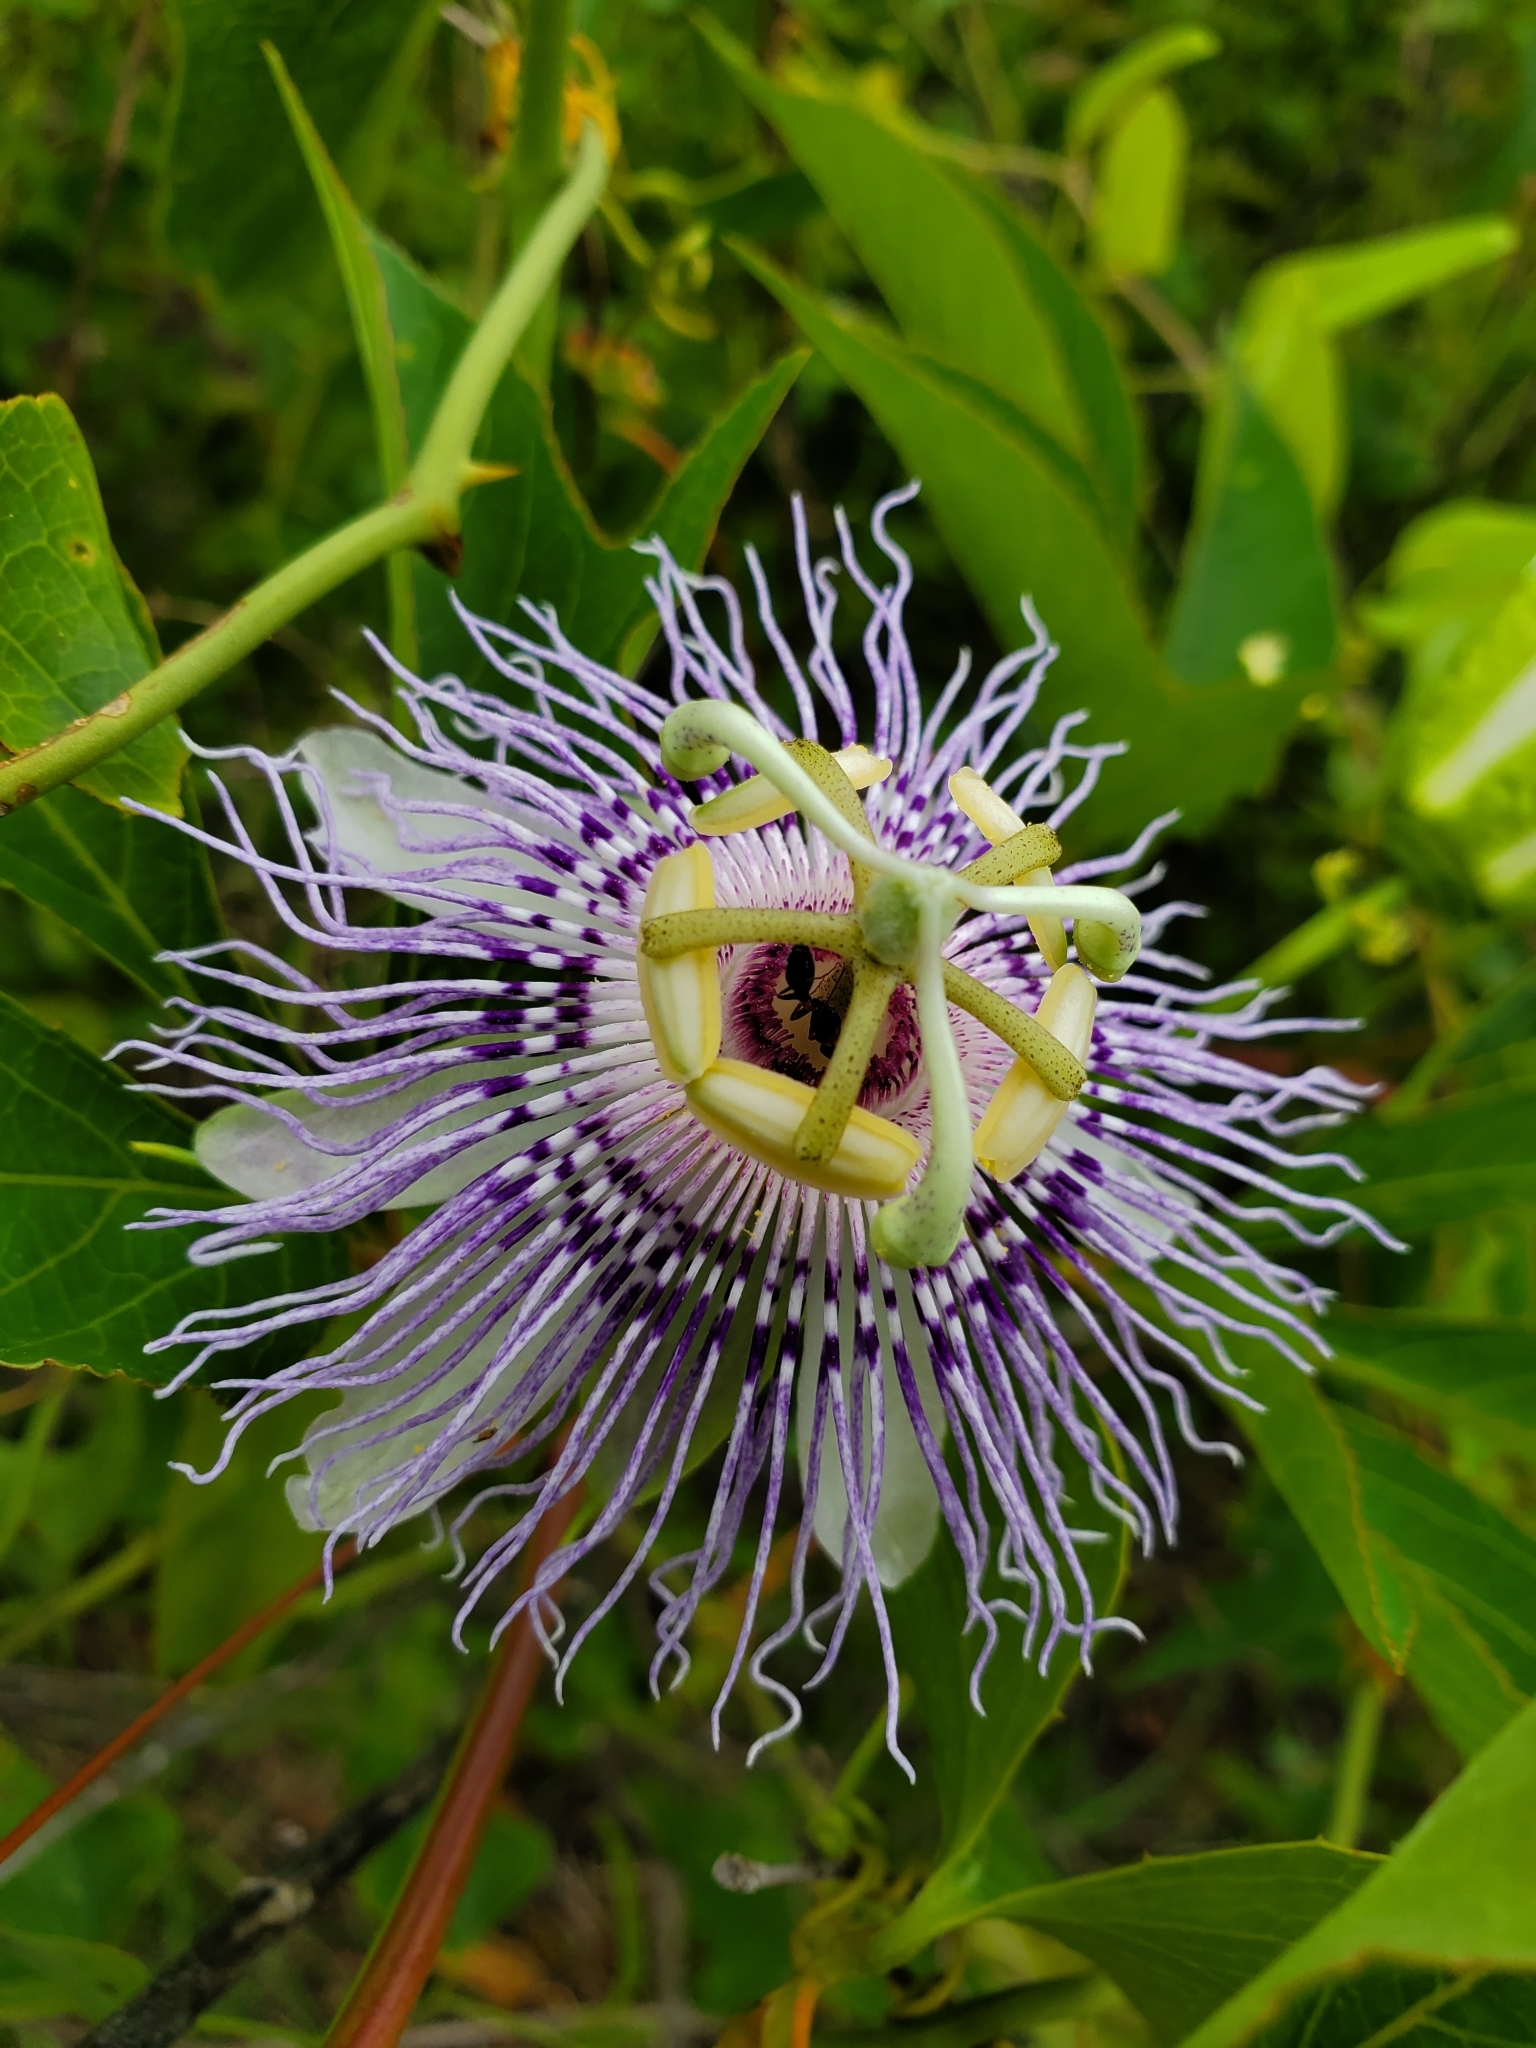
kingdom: Plantae
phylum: Tracheophyta
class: Magnoliopsida
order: Malpighiales
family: Passifloraceae
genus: Passiflora
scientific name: Passiflora incarnata
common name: Apricot-vine
